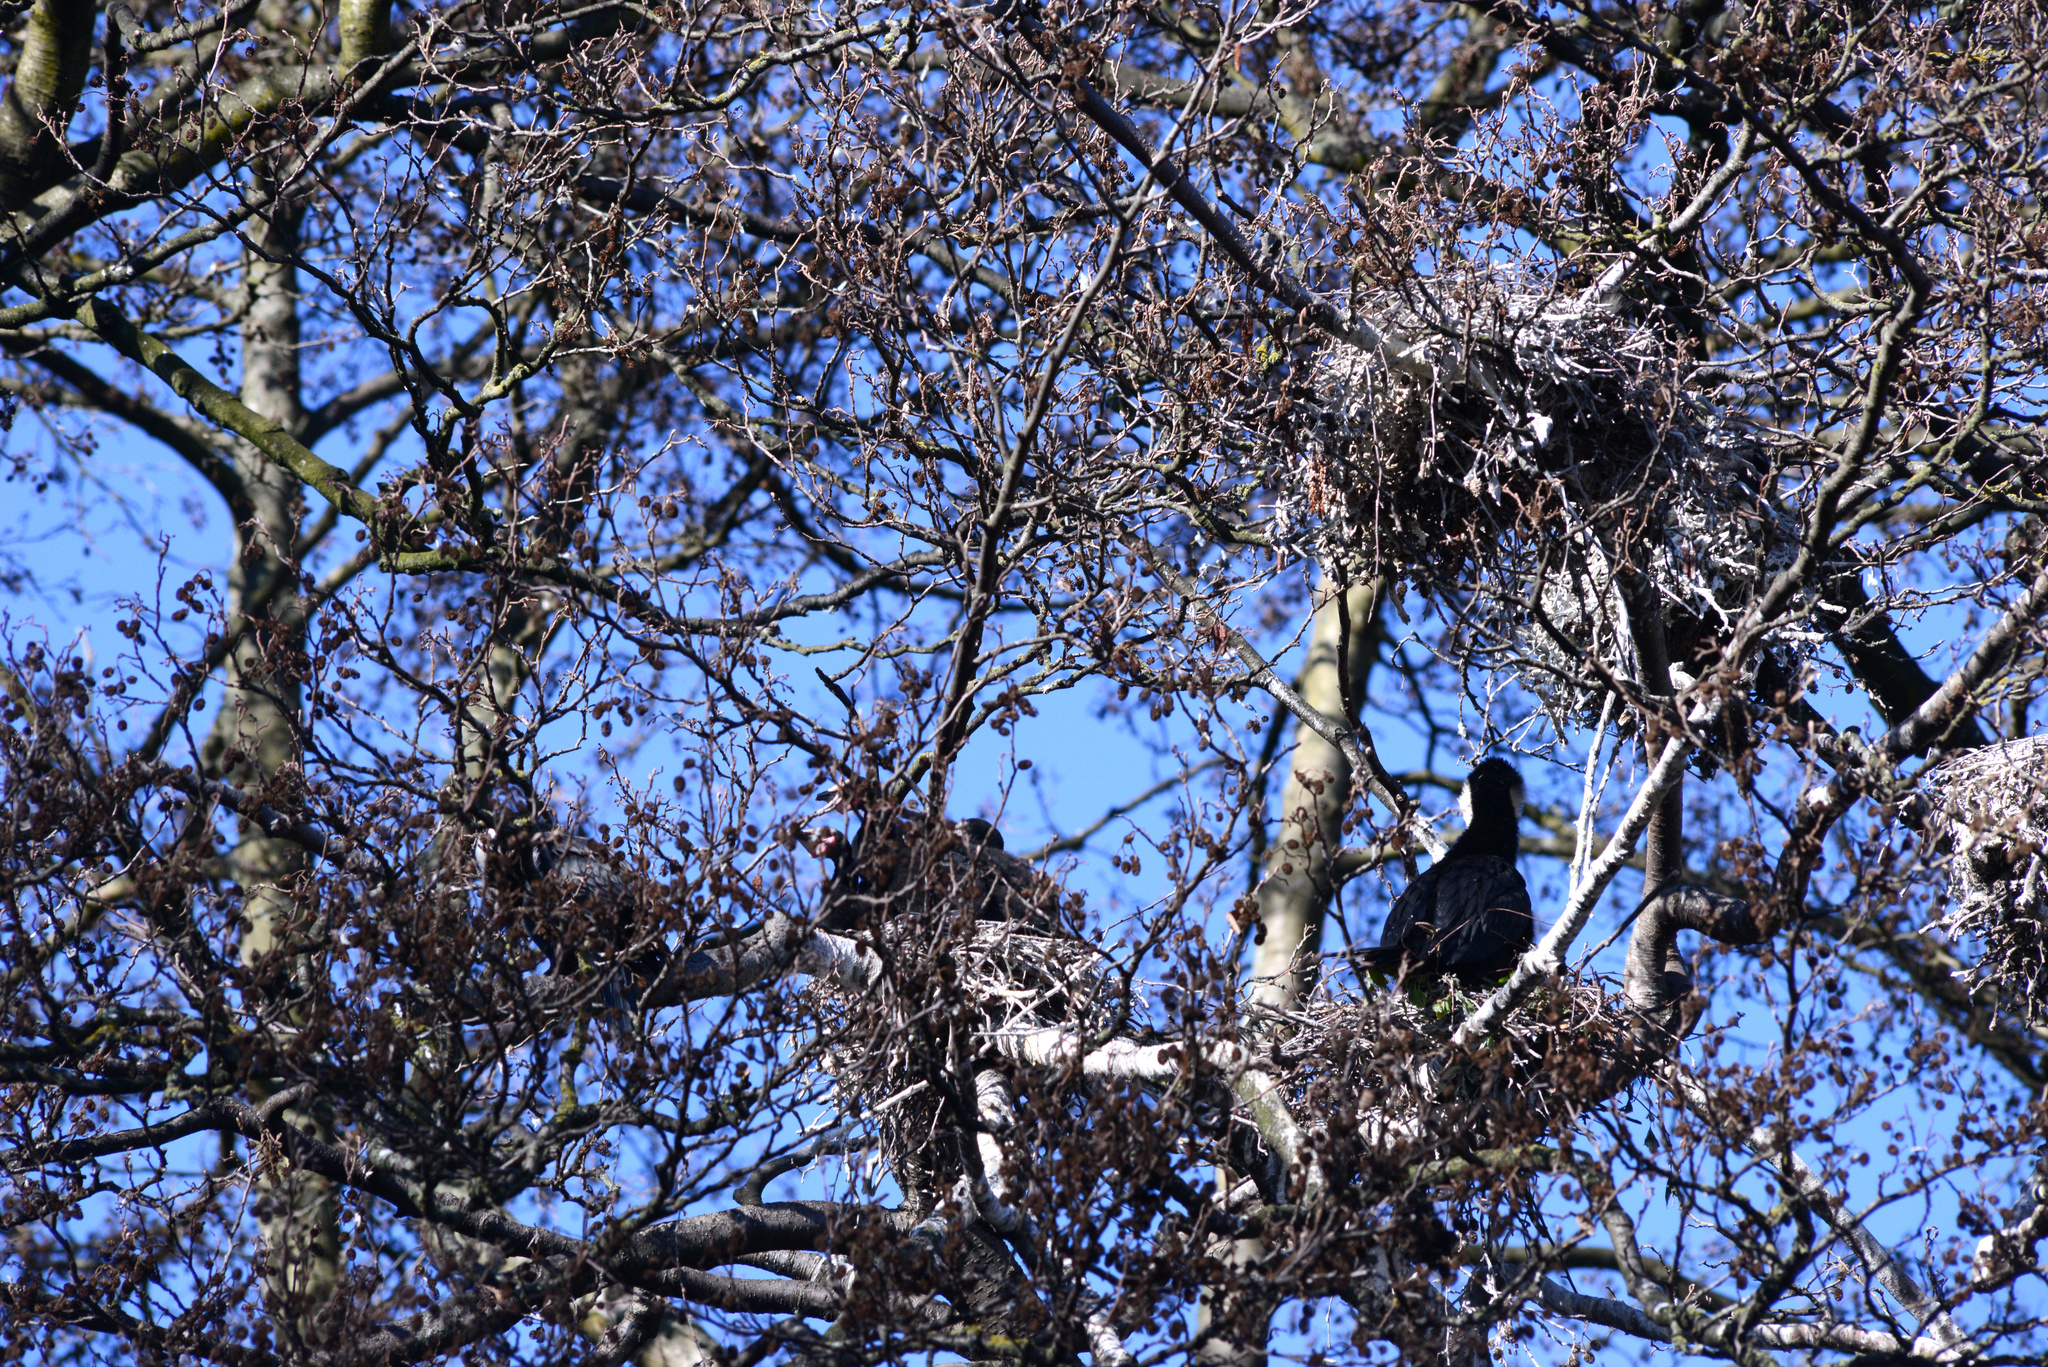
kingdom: Animalia
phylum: Chordata
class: Aves
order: Suliformes
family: Phalacrocoracidae
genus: Microcarbo
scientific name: Microcarbo melanoleucos
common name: Little pied cormorant
